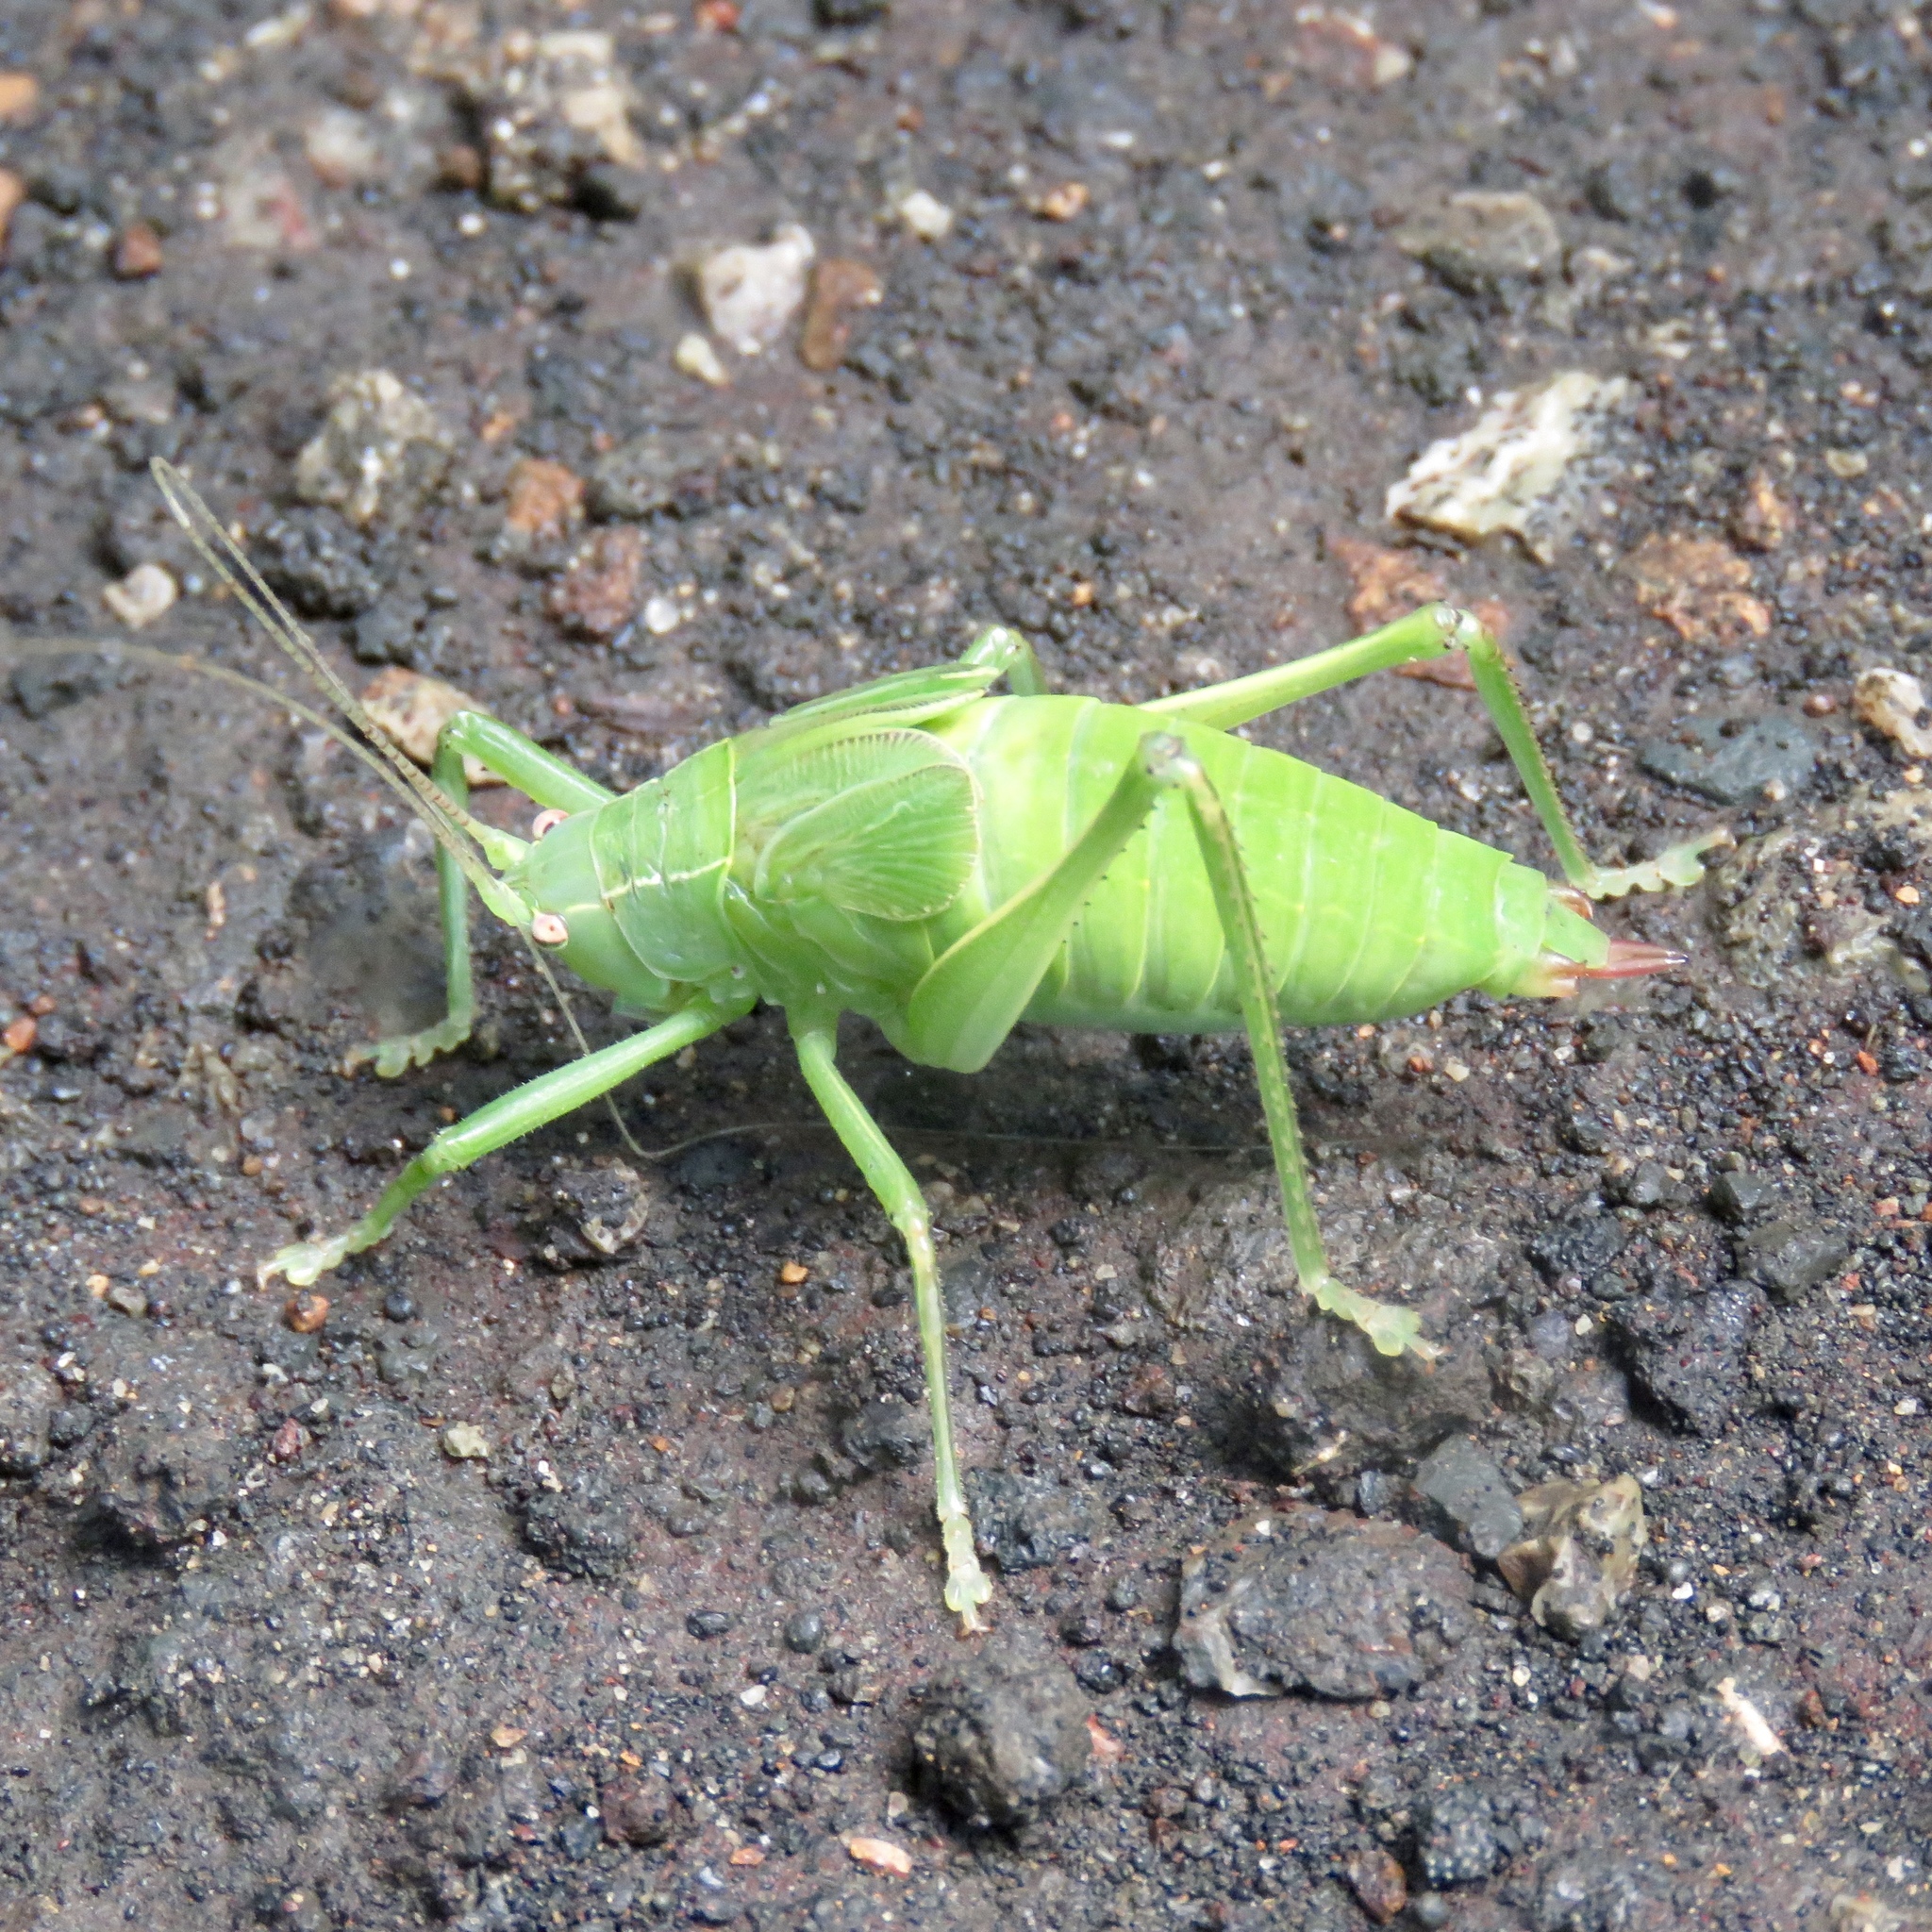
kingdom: Animalia
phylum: Arthropoda
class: Insecta
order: Orthoptera
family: Tettigoniidae
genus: Pterophylla
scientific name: Pterophylla camellifolia
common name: Common true katydid
